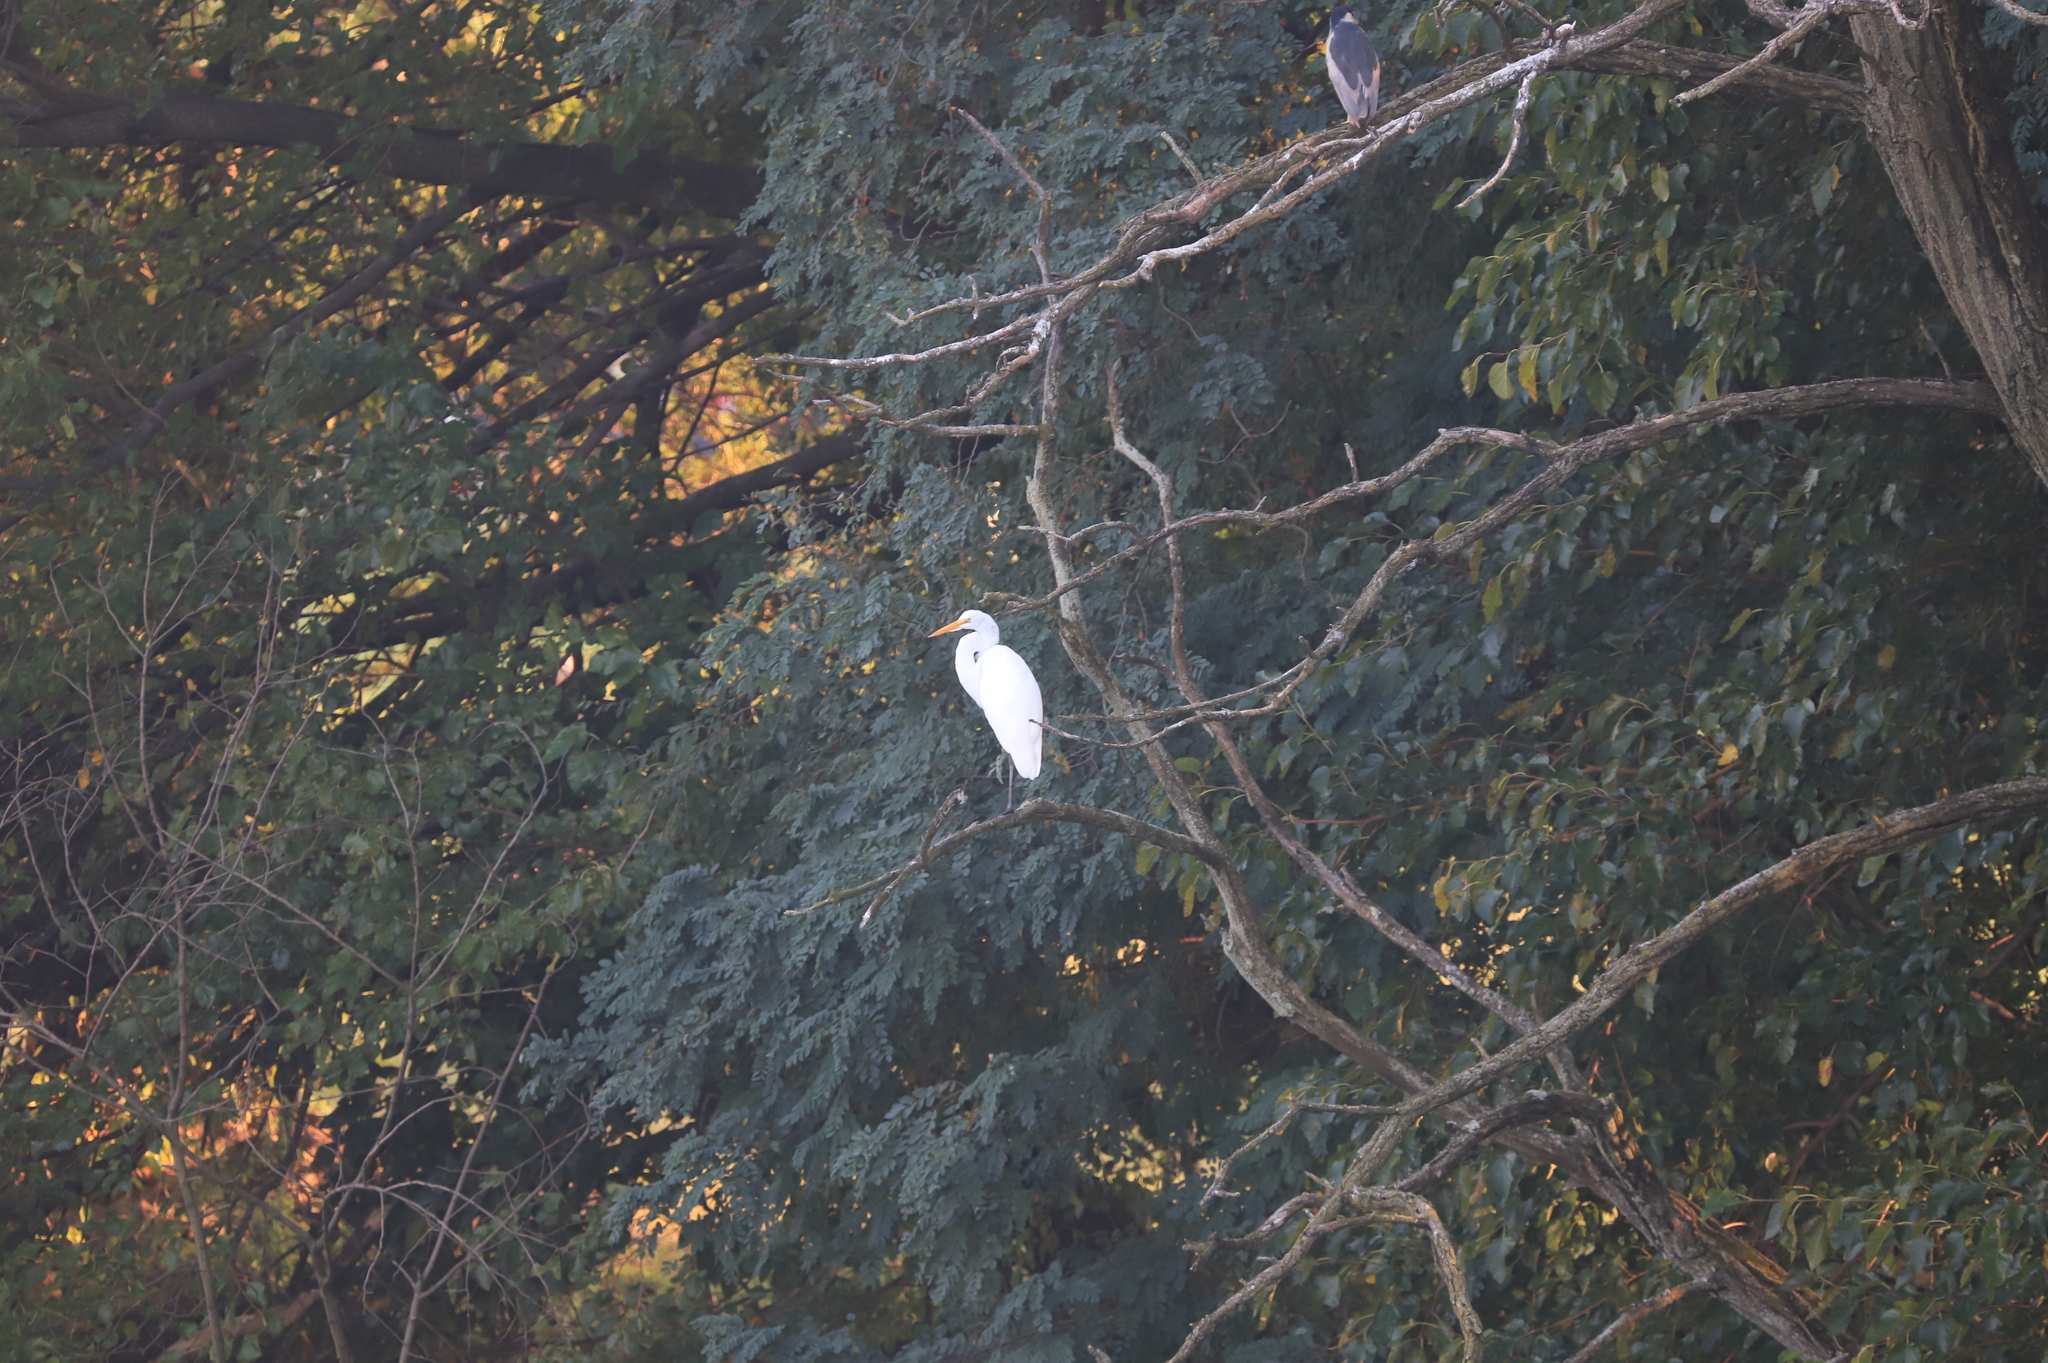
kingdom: Animalia
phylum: Chordata
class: Aves
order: Pelecaniformes
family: Ardeidae
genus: Ardea
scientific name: Ardea alba
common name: Great egret
